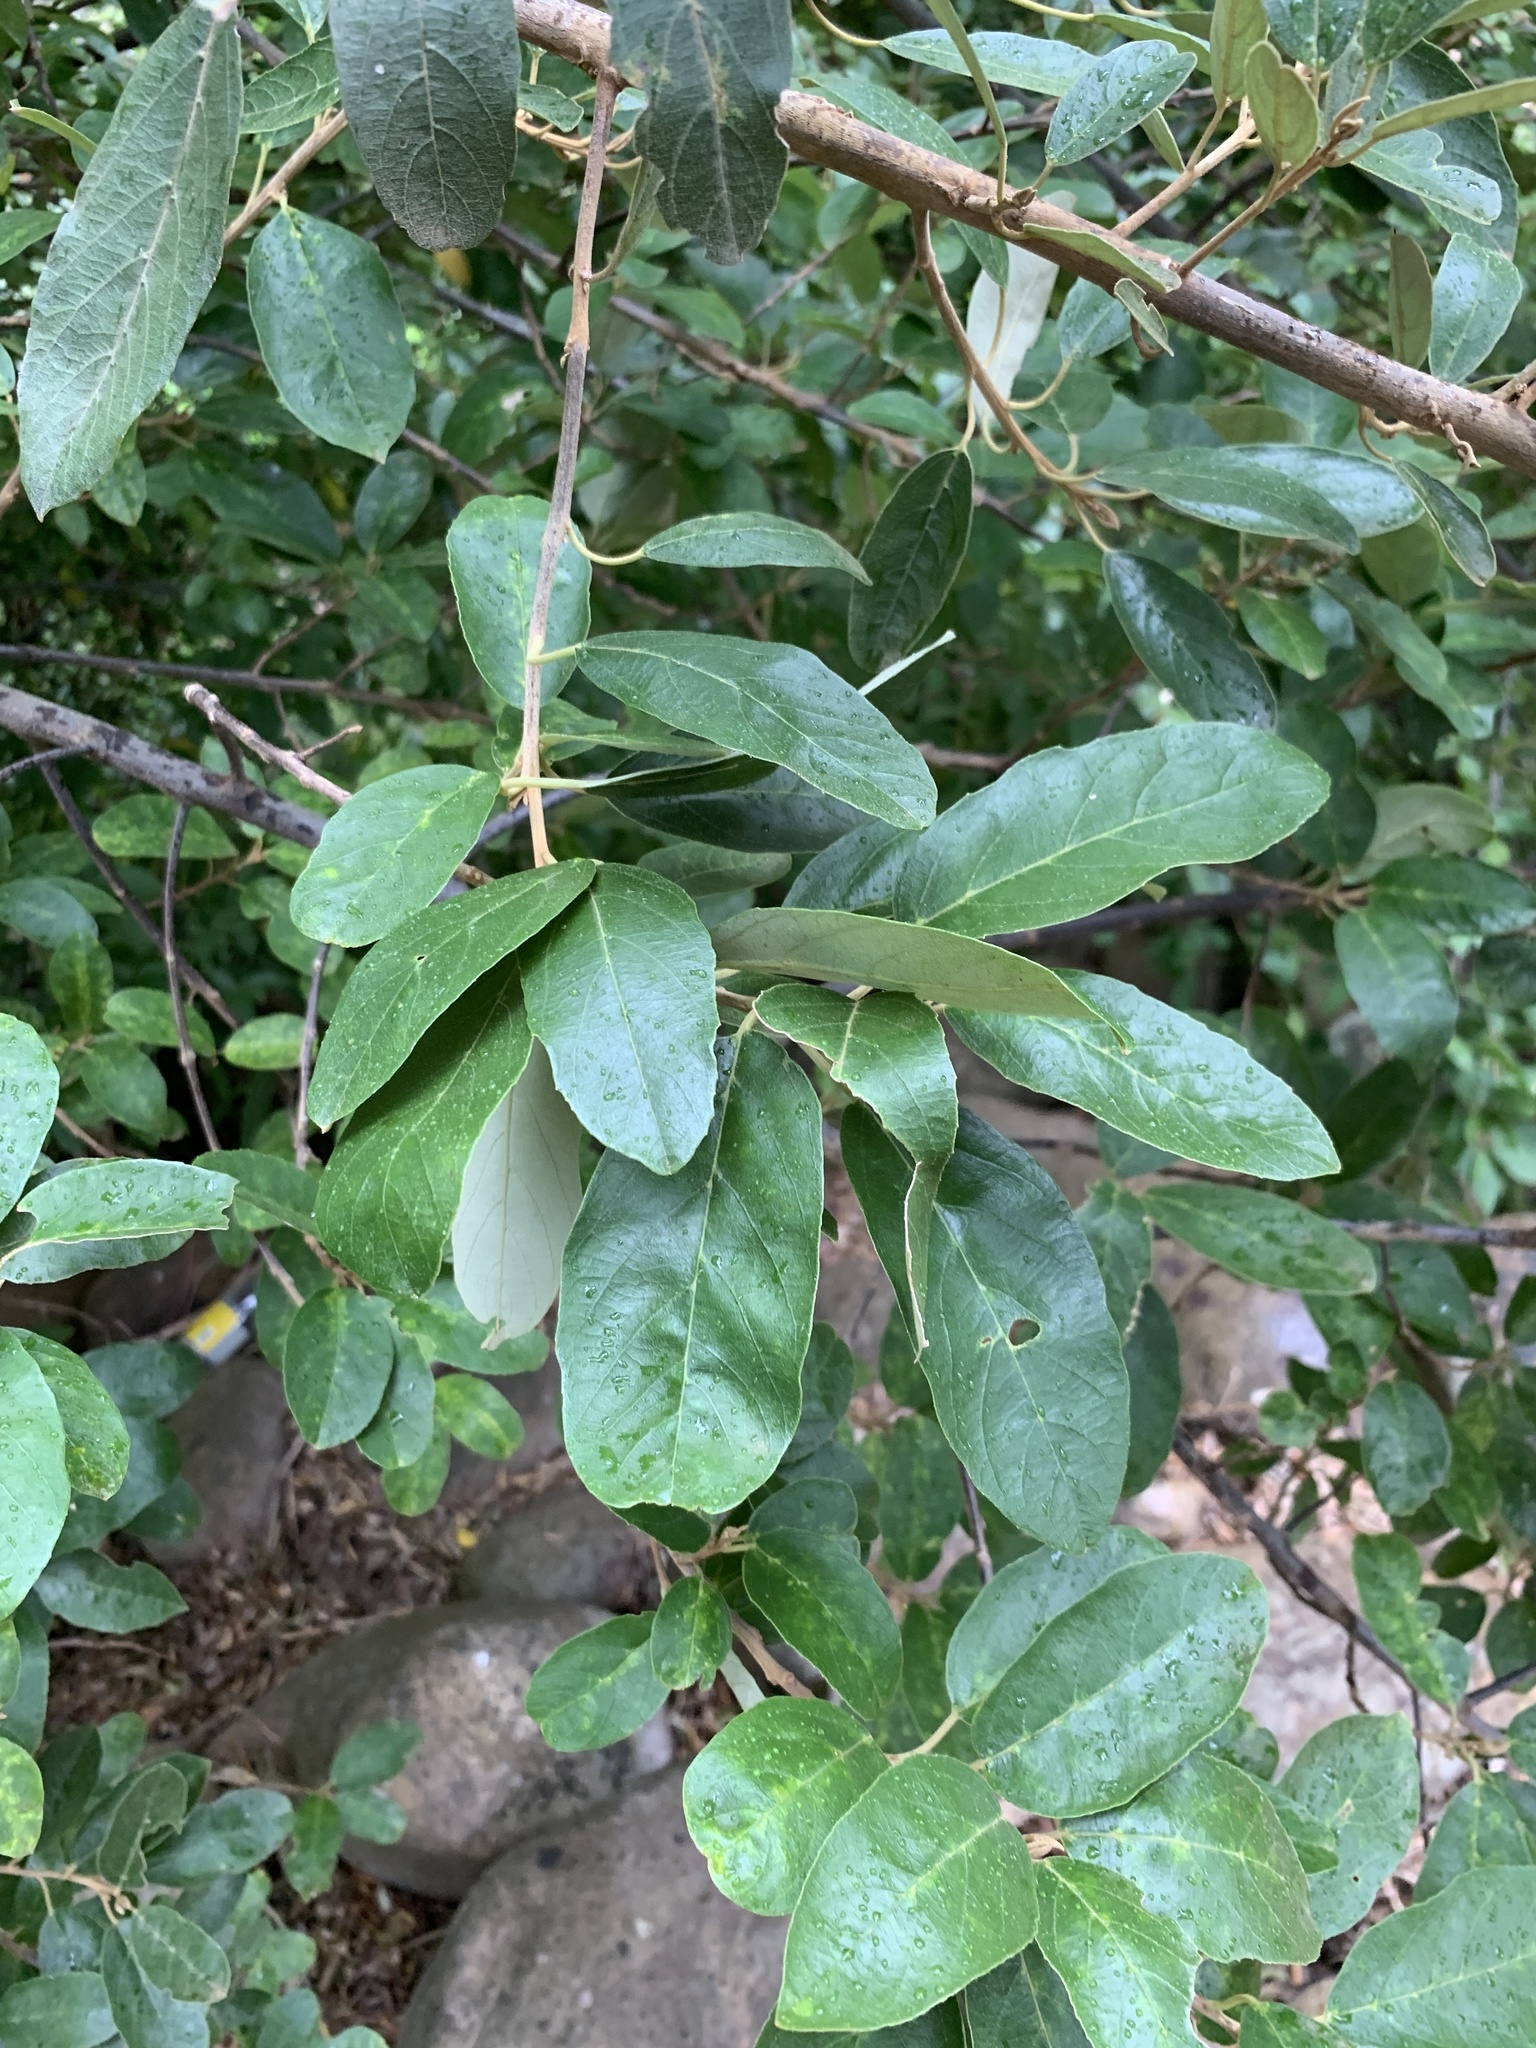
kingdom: Plantae
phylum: Tracheophyta
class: Magnoliopsida
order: Malpighiales
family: Achariaceae
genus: Kiggelaria
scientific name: Kiggelaria africana
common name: Wild peach
